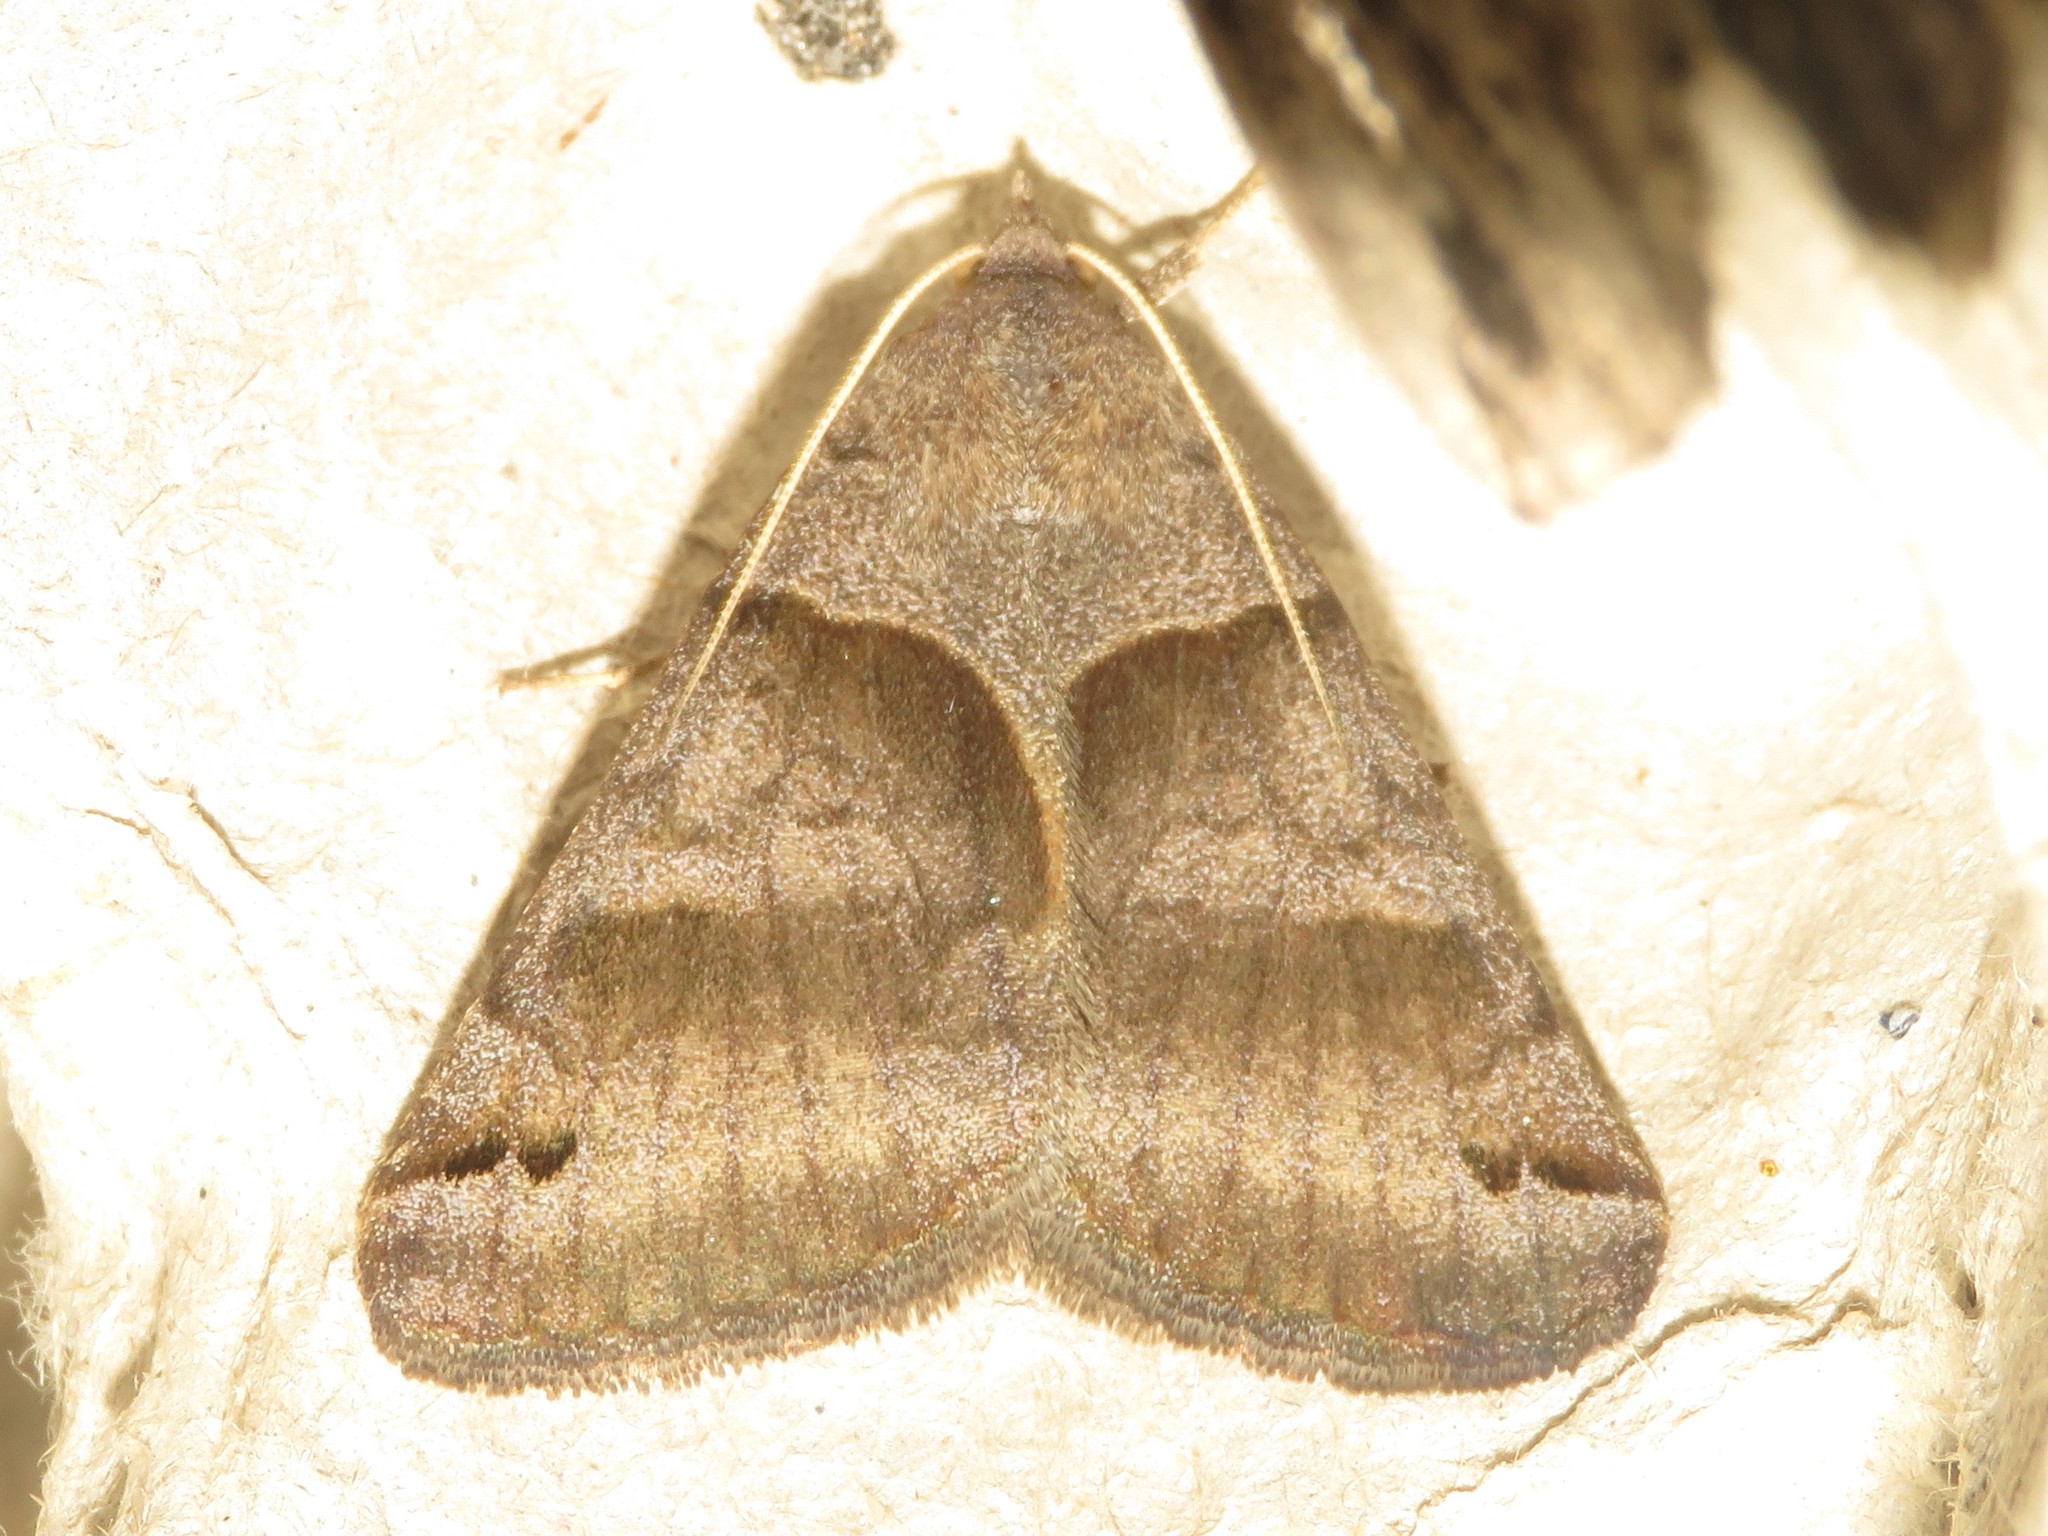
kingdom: Animalia
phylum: Arthropoda
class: Insecta
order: Lepidoptera
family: Erebidae
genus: Caenurgina
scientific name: Caenurgina crassiuscula
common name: Double-barred
